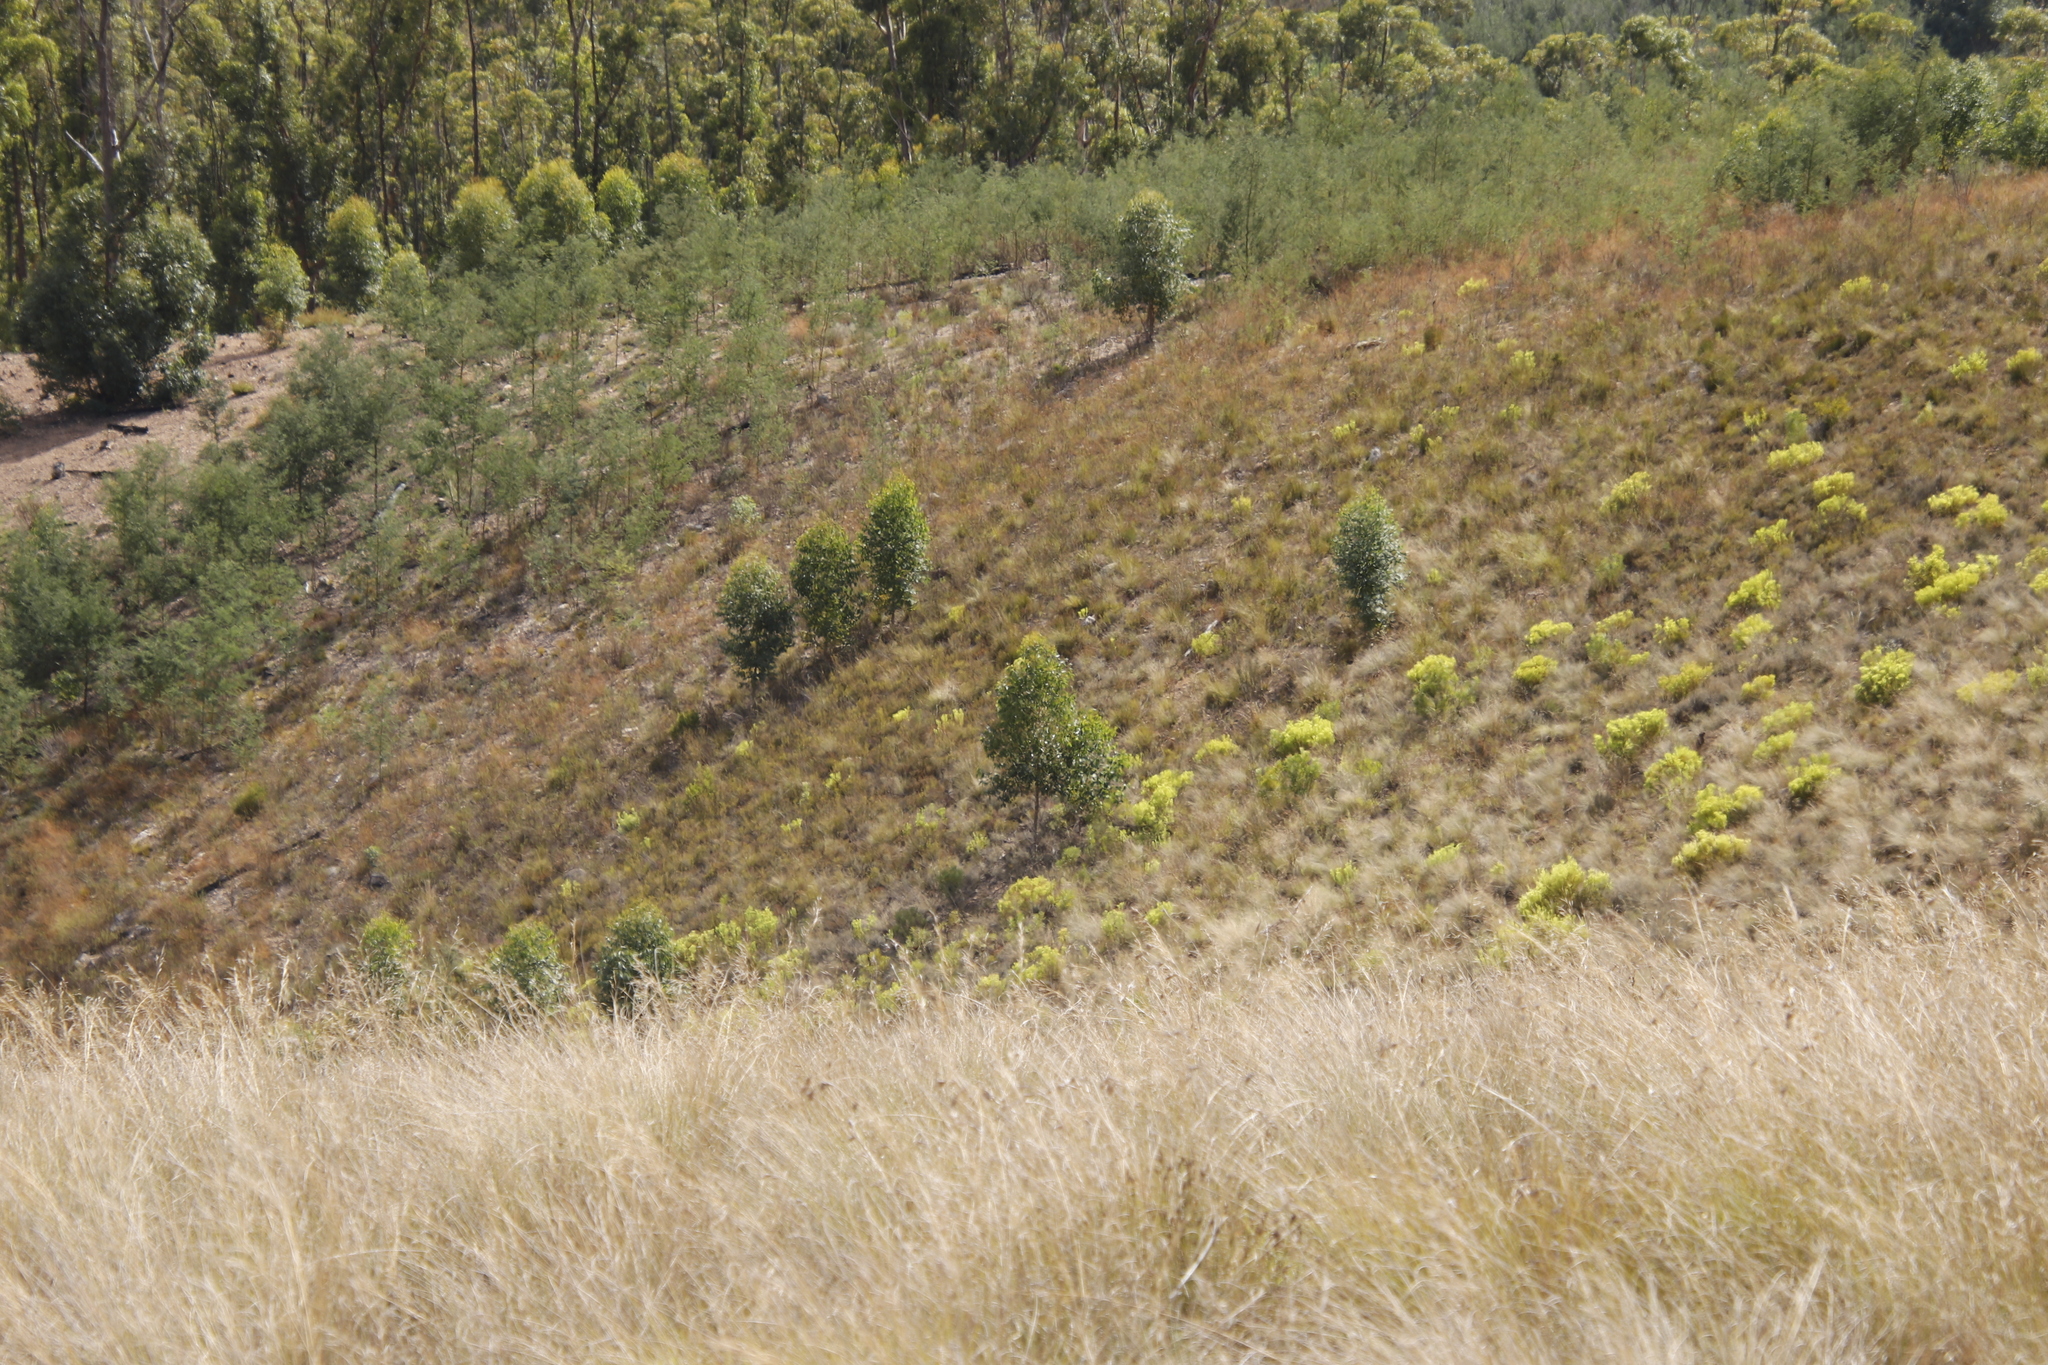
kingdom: Plantae
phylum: Tracheophyta
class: Magnoliopsida
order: Fabales
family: Fabaceae
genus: Acacia
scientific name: Acacia mearnsii
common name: Black wattle
